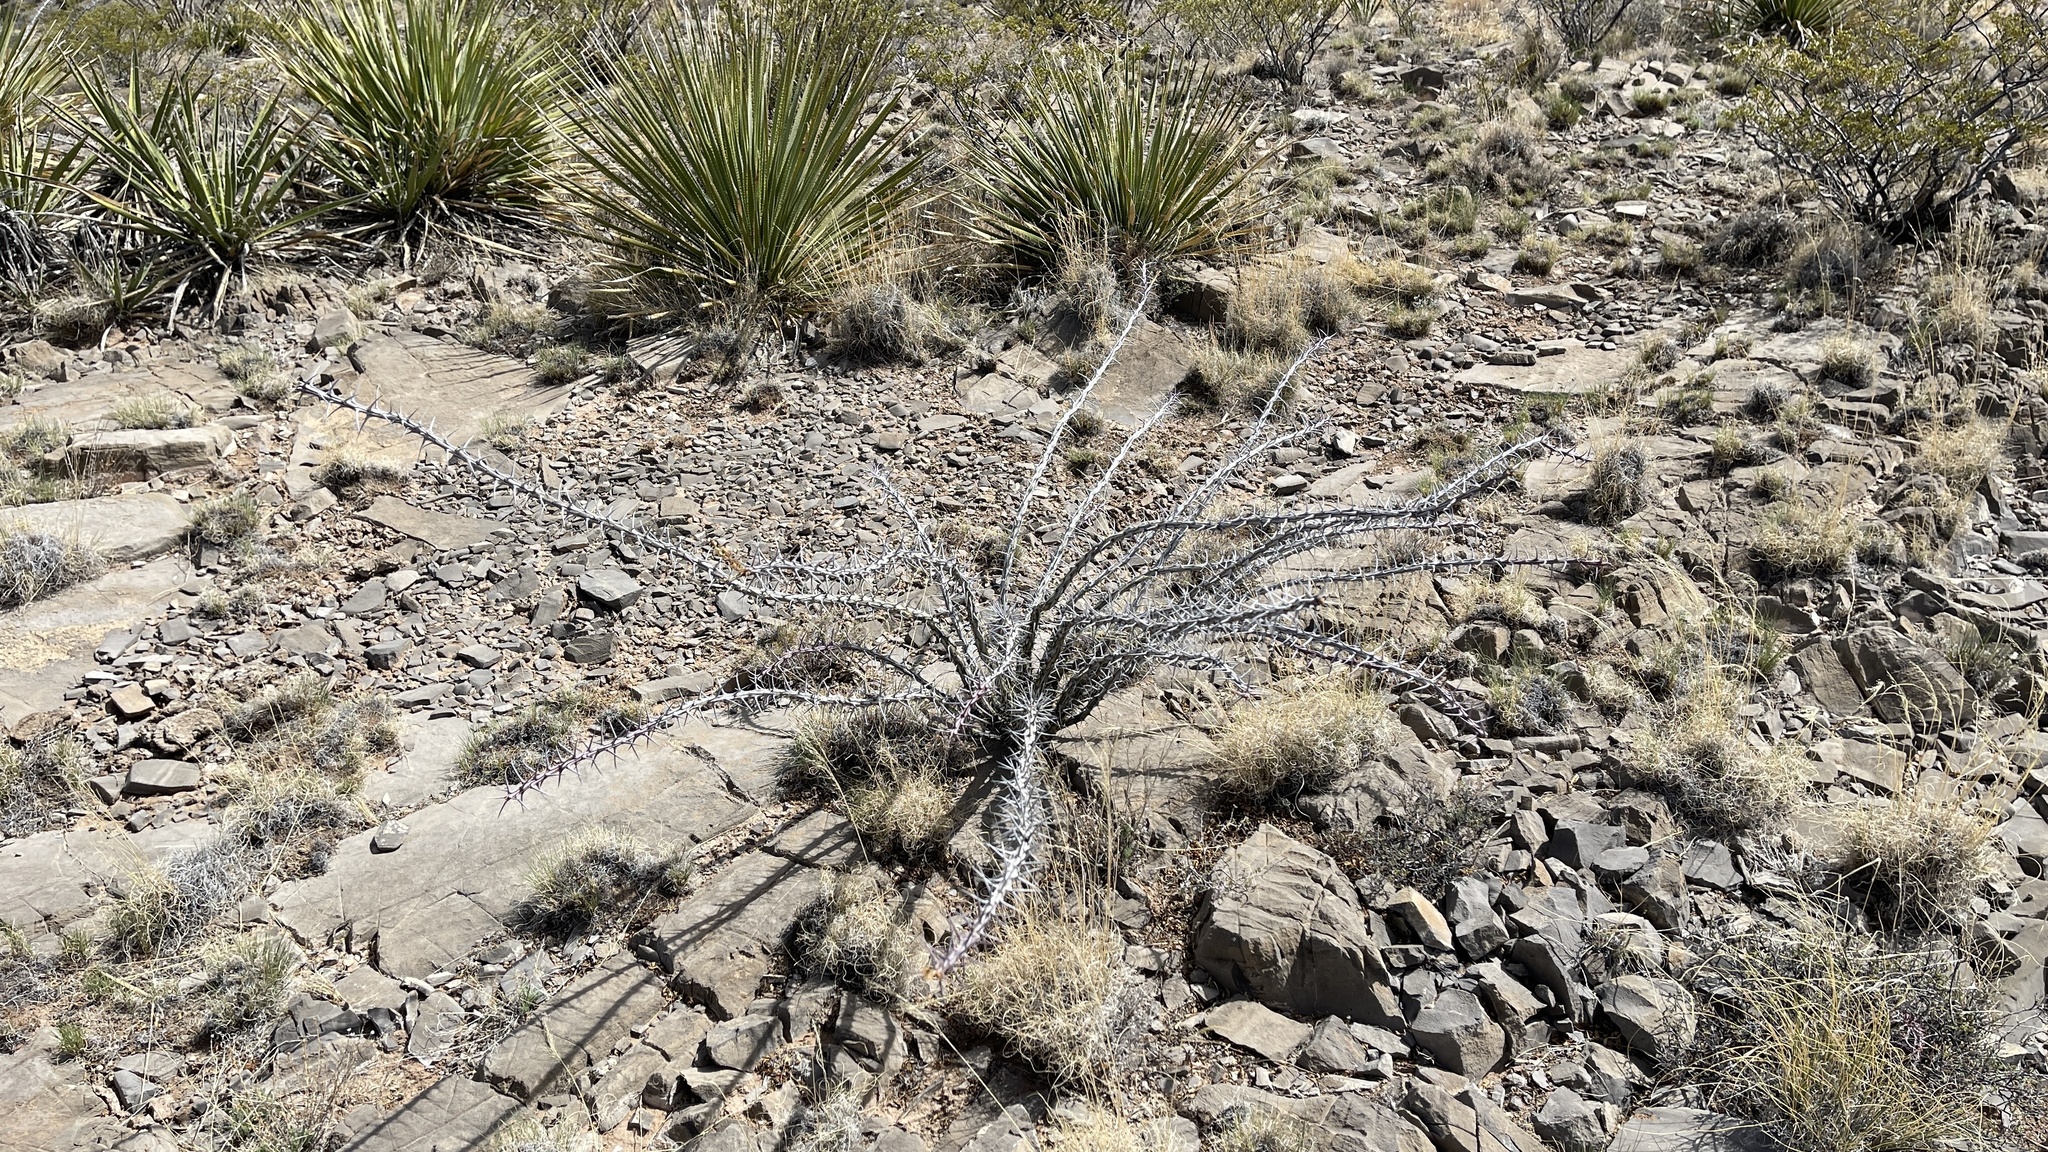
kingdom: Plantae
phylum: Tracheophyta
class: Magnoliopsida
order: Ericales
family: Fouquieriaceae
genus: Fouquieria
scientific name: Fouquieria splendens
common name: Vine-cactus
